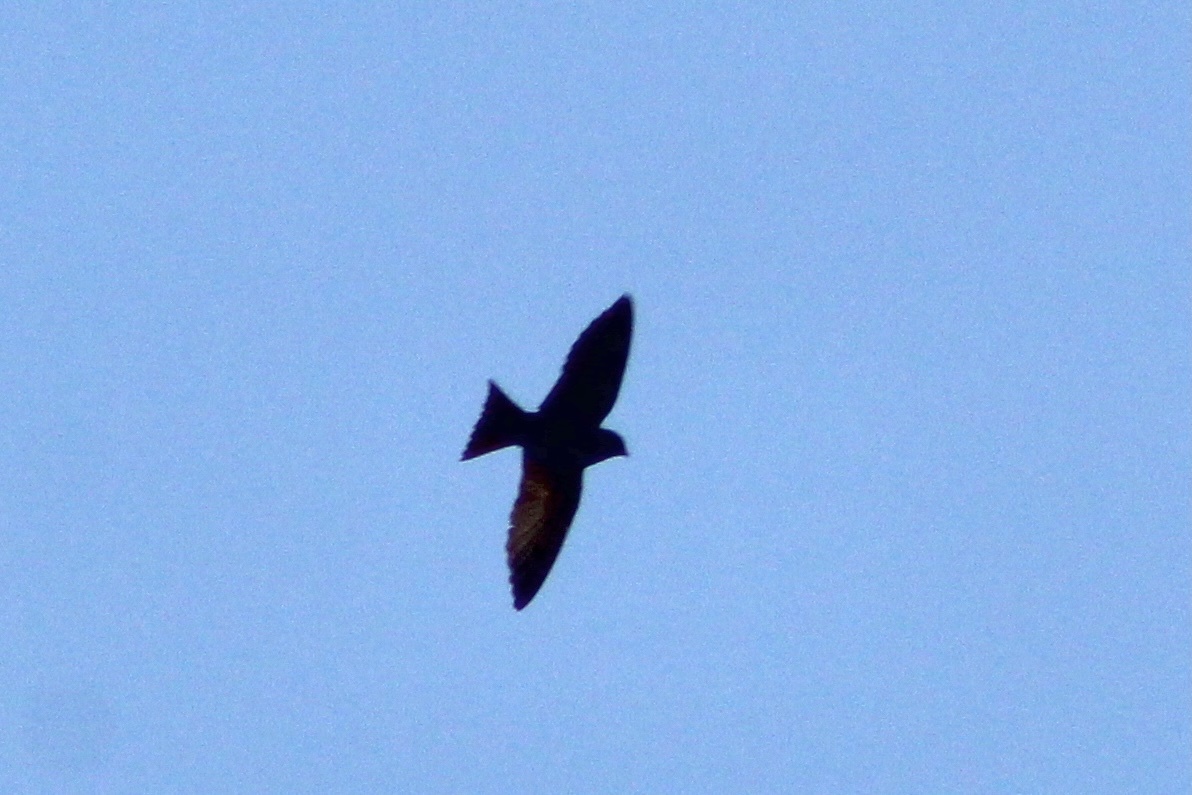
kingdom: Animalia
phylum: Chordata
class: Aves
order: Passeriformes
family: Hirundinidae
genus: Progne
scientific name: Progne subis
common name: Purple martin
